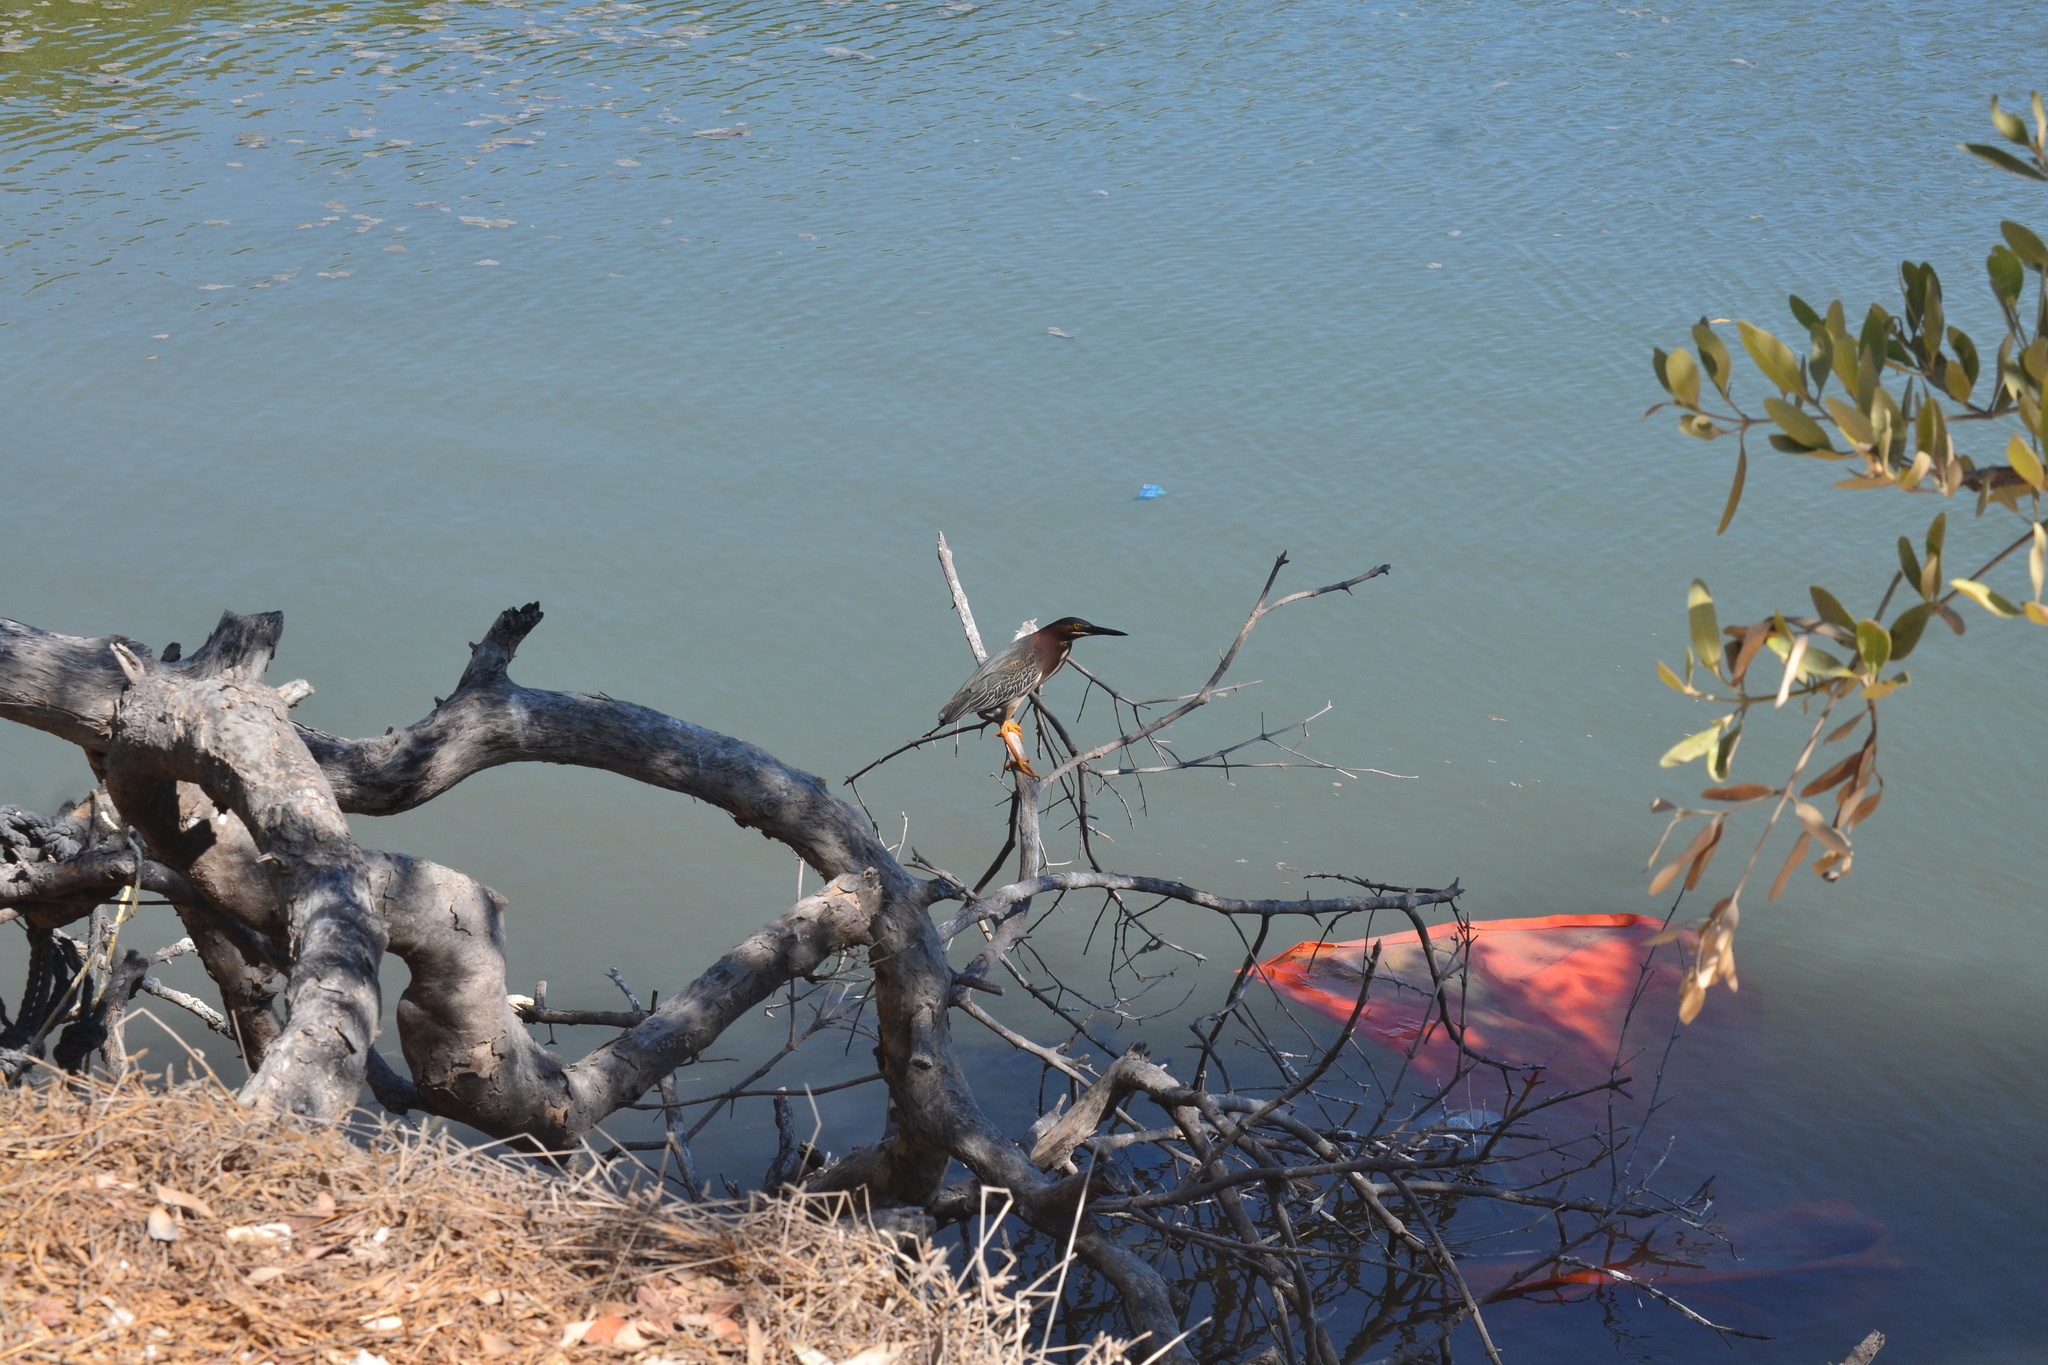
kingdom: Animalia
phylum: Chordata
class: Aves
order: Pelecaniformes
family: Ardeidae
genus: Butorides
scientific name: Butorides virescens
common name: Green heron
